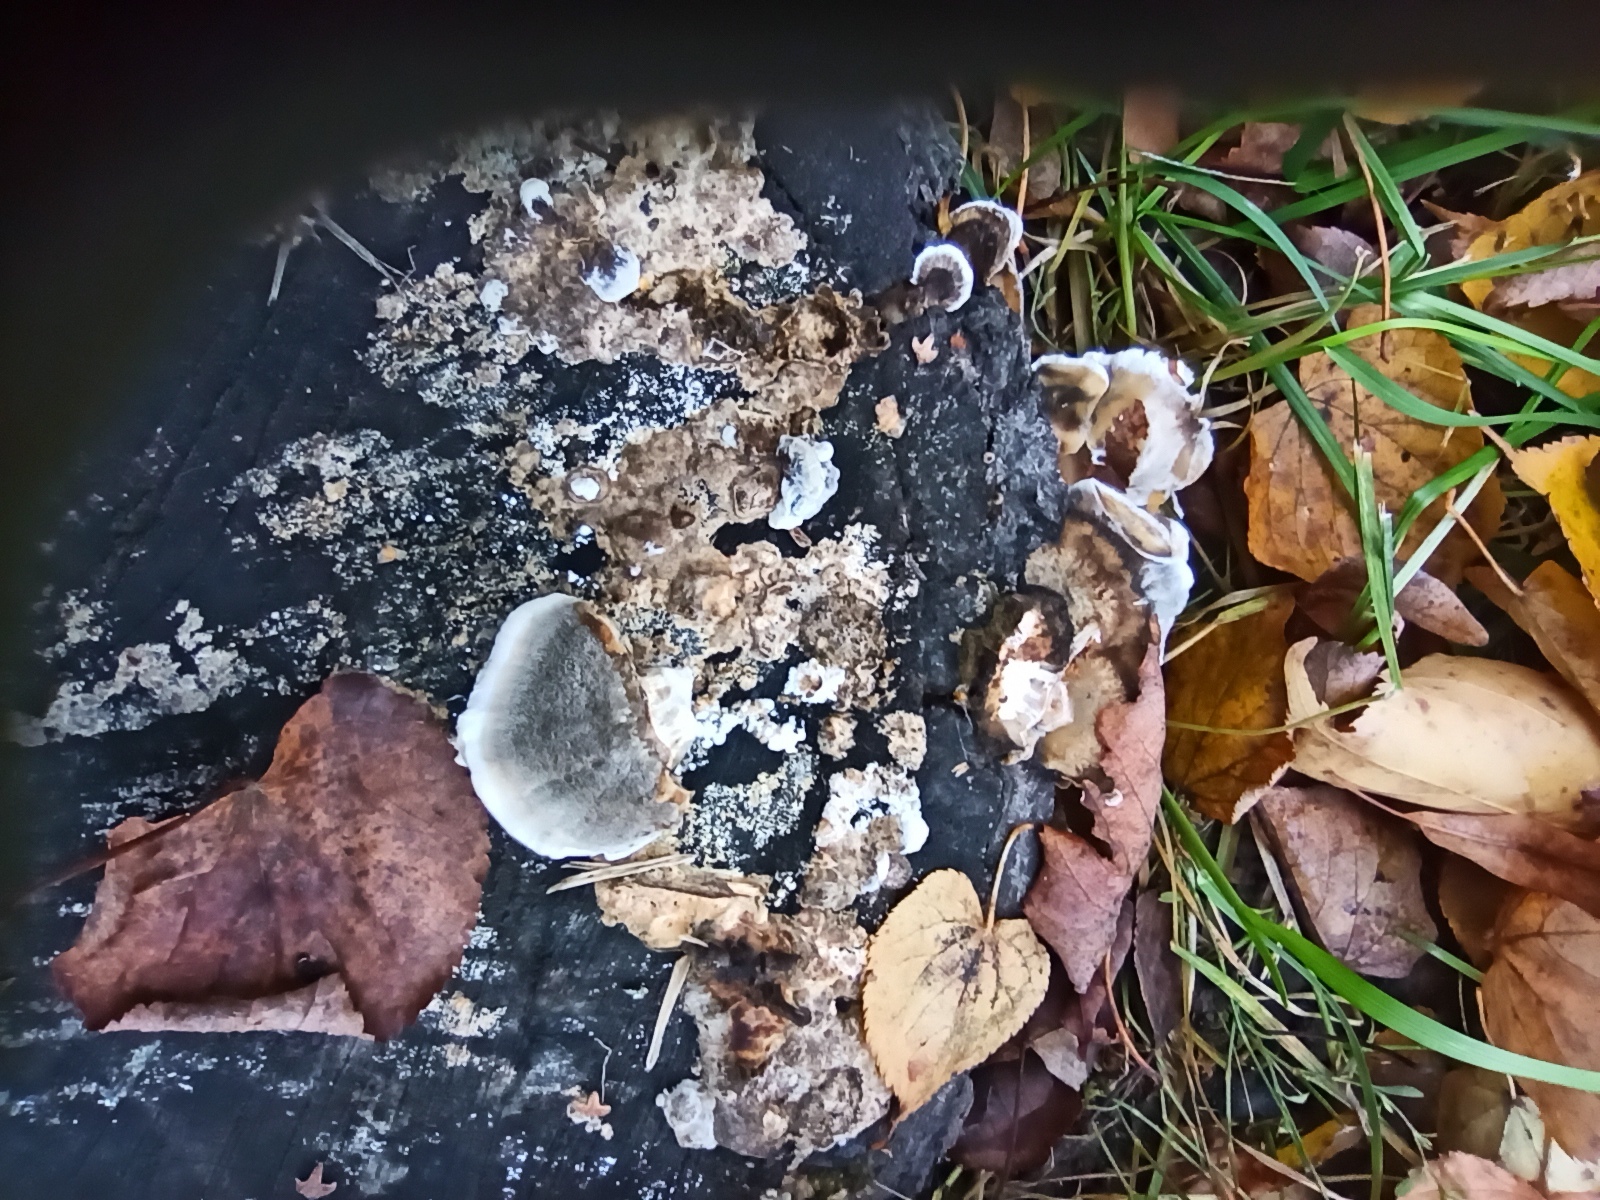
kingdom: Fungi
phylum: Basidiomycota
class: Agaricomycetes
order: Polyporales
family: Phanerochaetaceae
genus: Bjerkandera
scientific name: Bjerkandera adusta
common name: Smoky bracket
